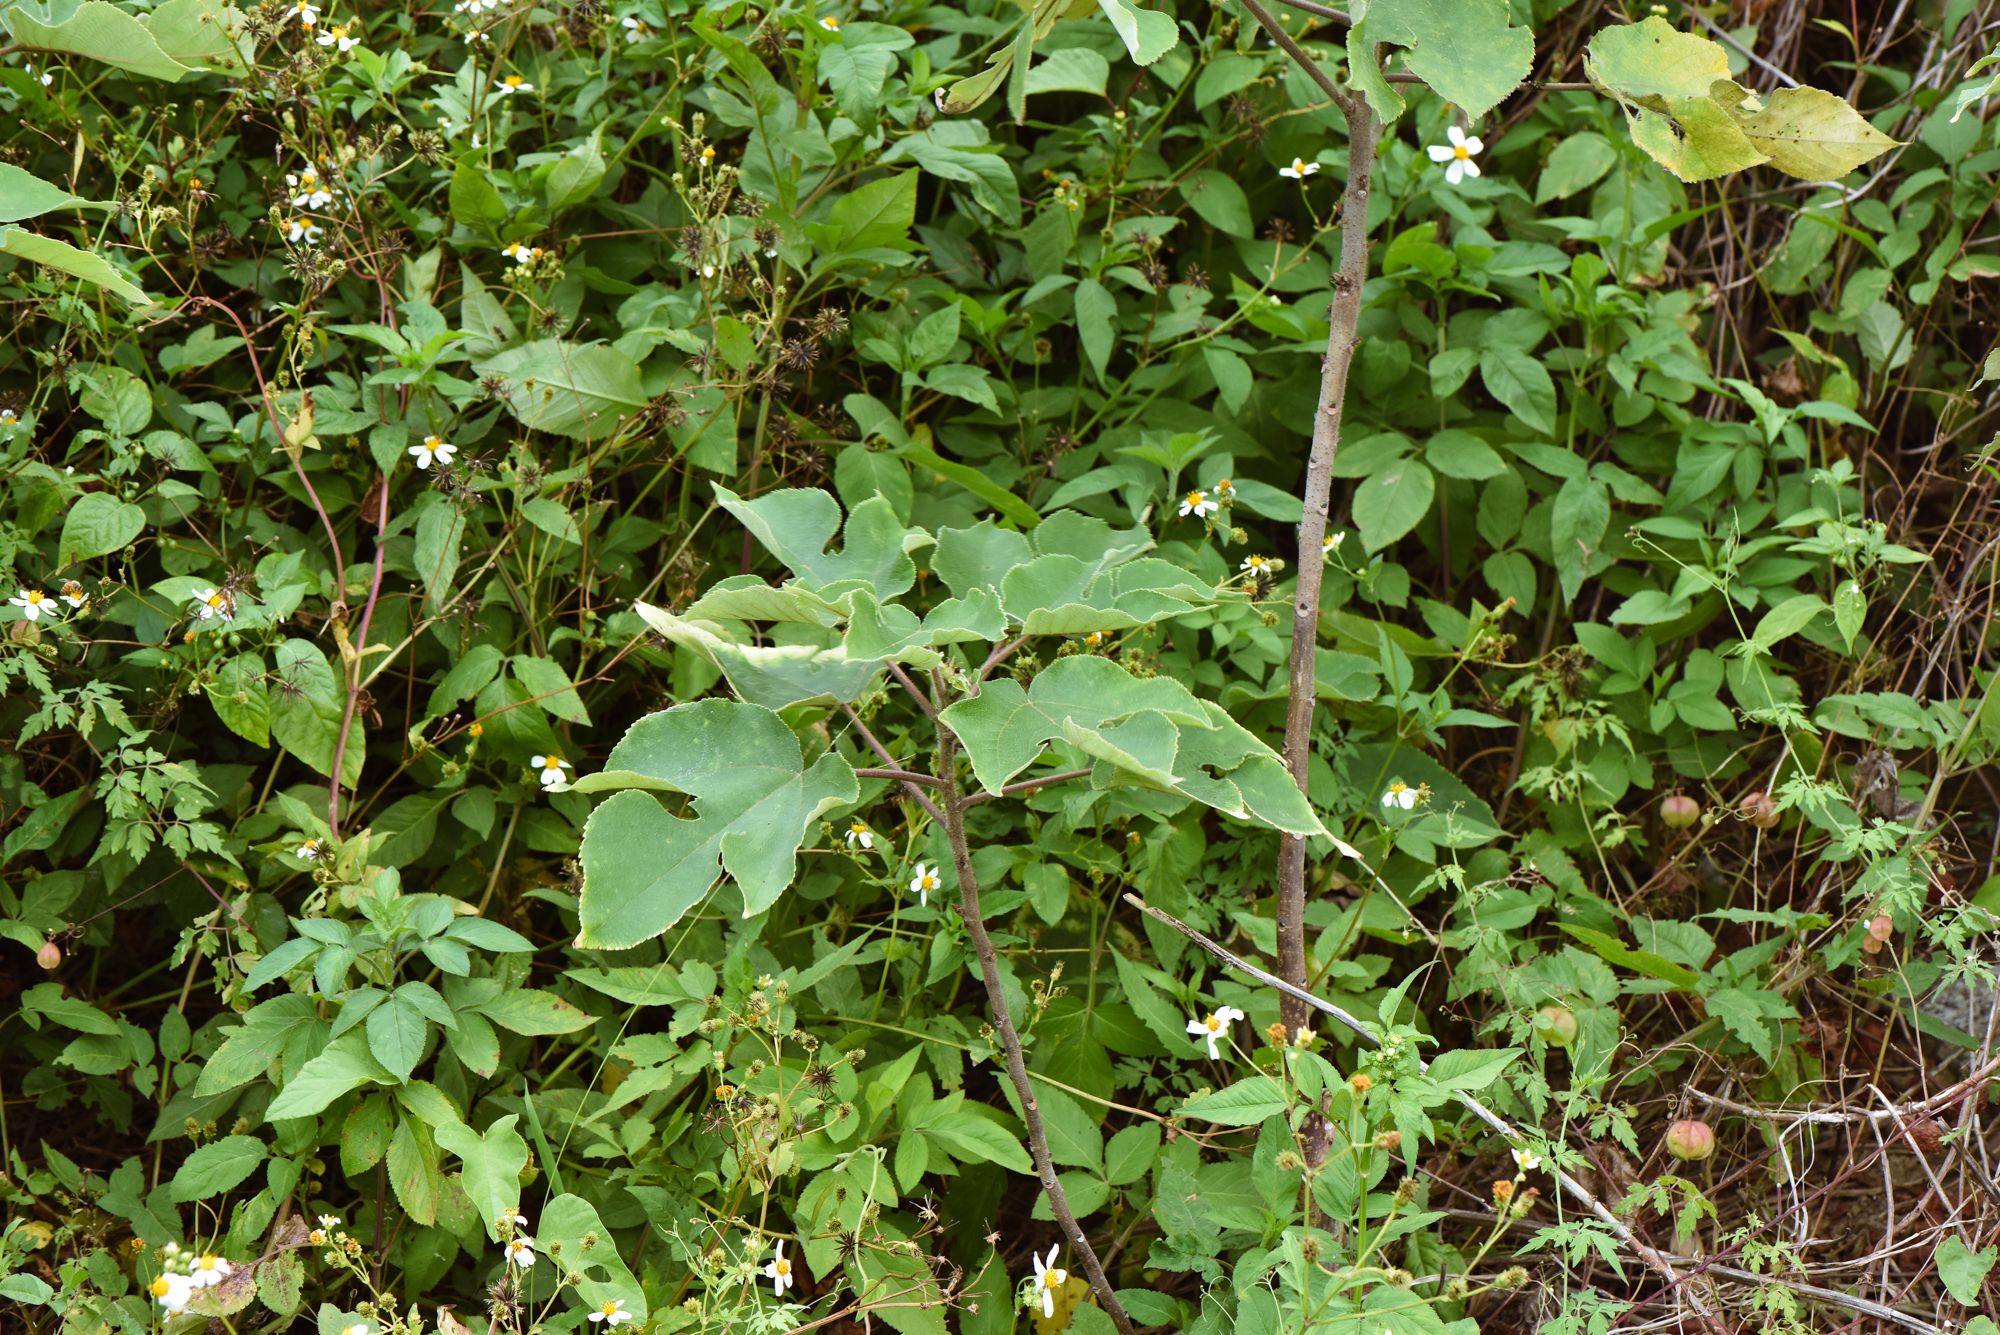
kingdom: Plantae
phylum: Tracheophyta
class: Magnoliopsida
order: Rosales
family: Moraceae
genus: Broussonetia
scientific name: Broussonetia papyrifera
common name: Paper mulberry
